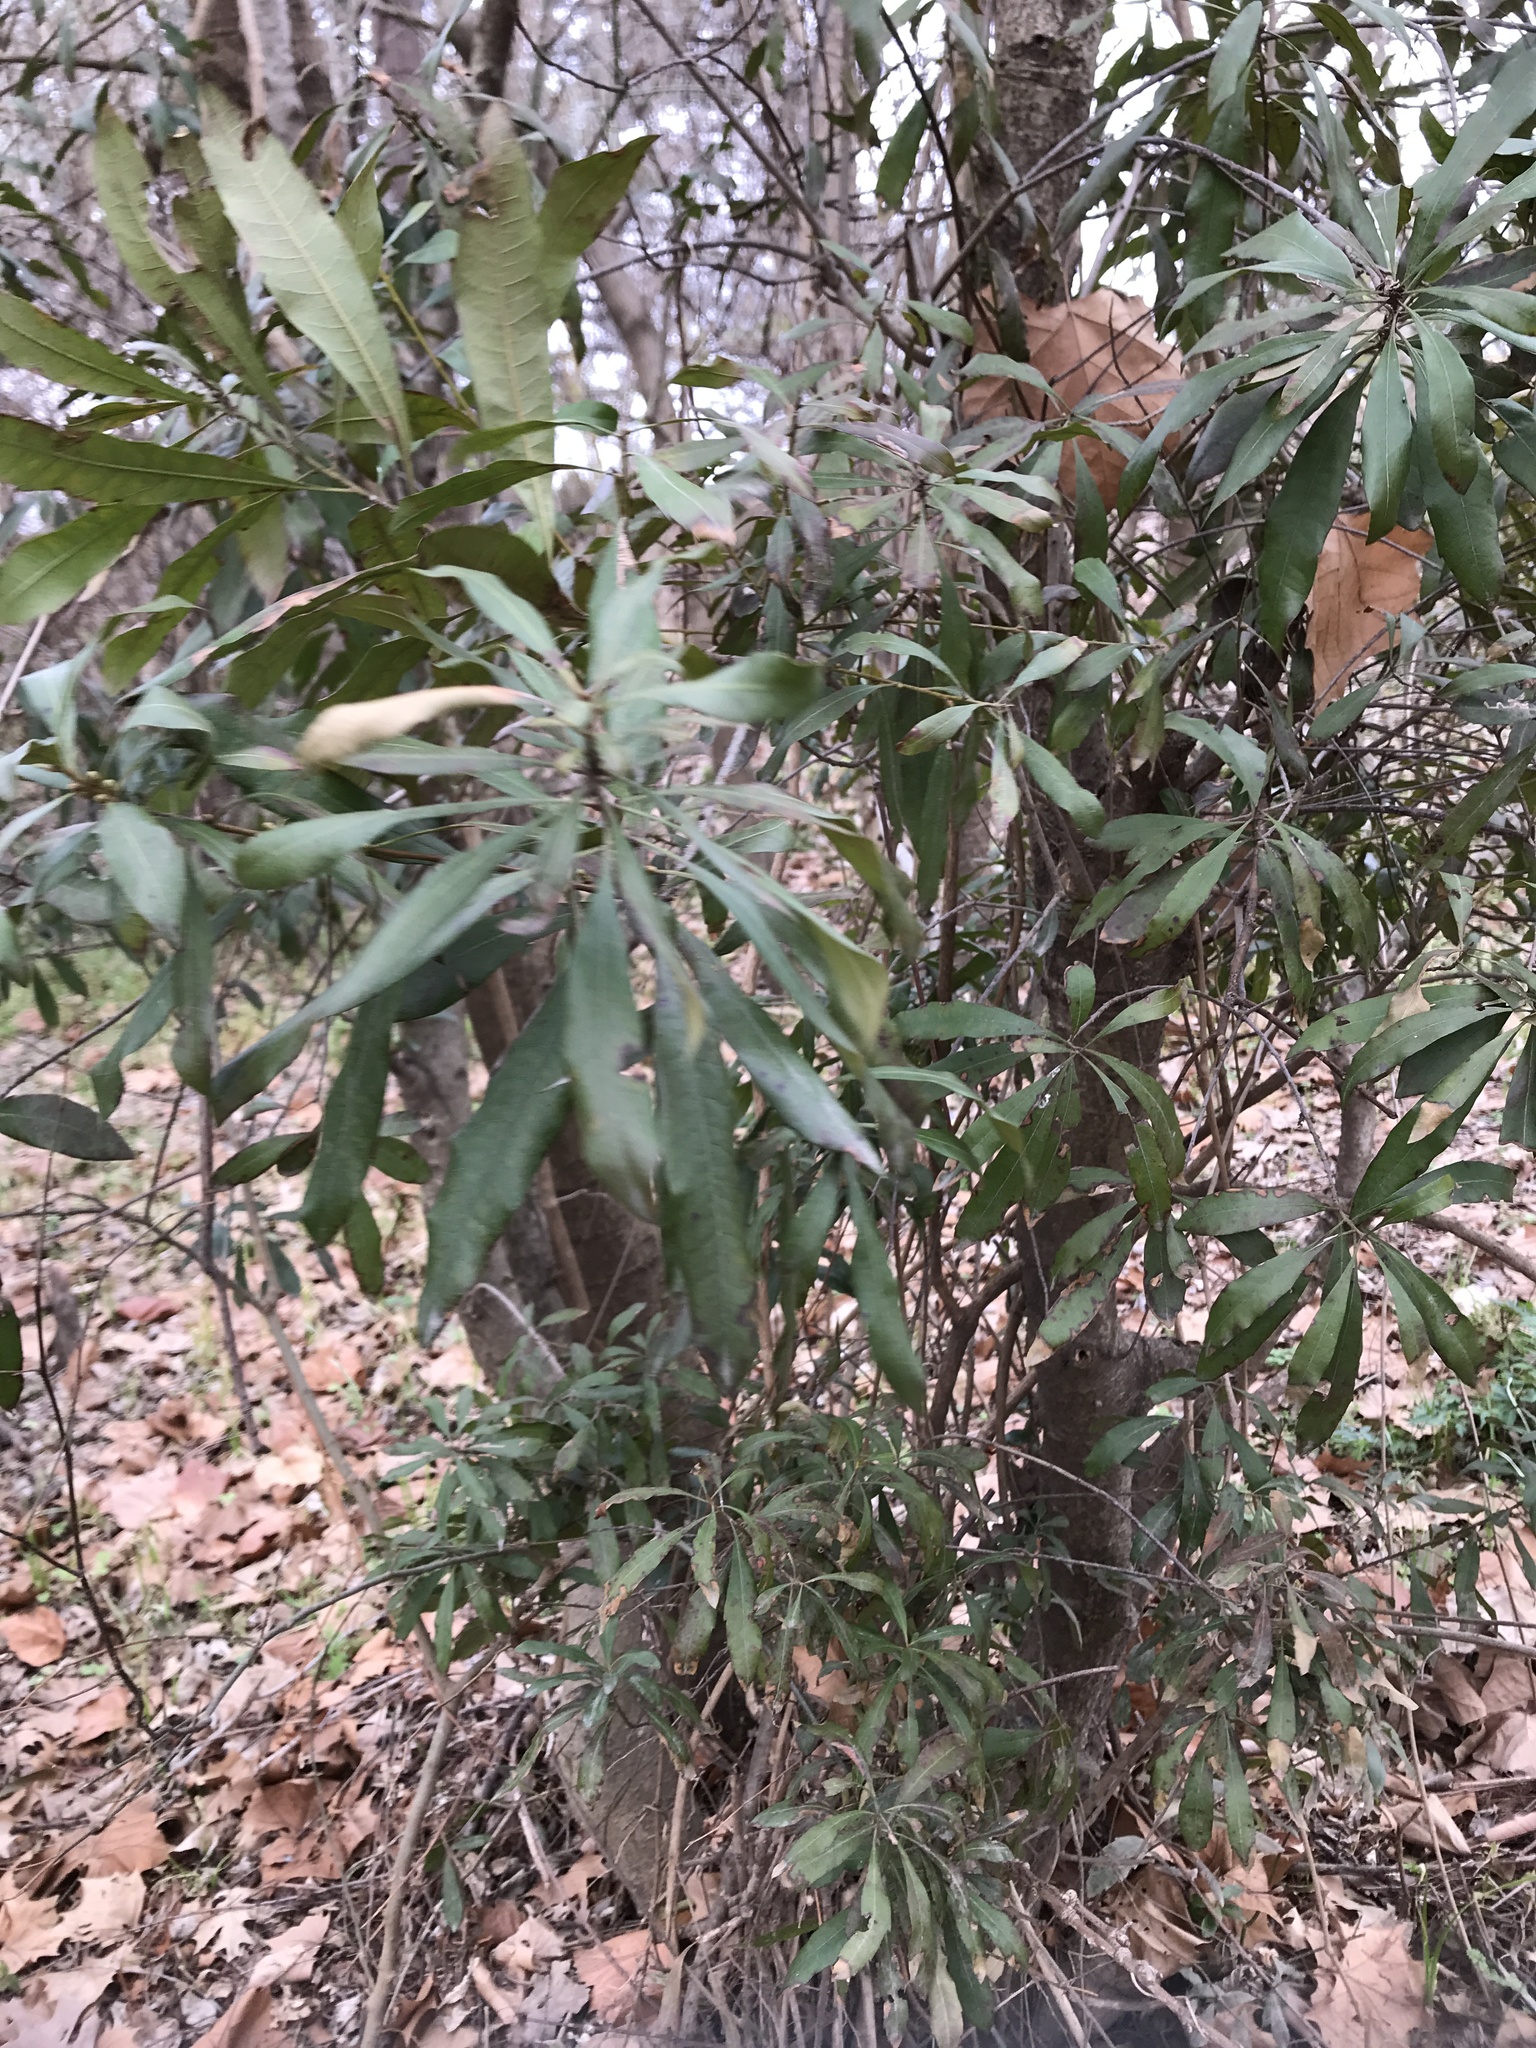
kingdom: Plantae
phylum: Tracheophyta
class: Magnoliopsida
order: Fagales
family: Myricaceae
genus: Morella
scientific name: Morella cerifera
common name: Wax myrtle
